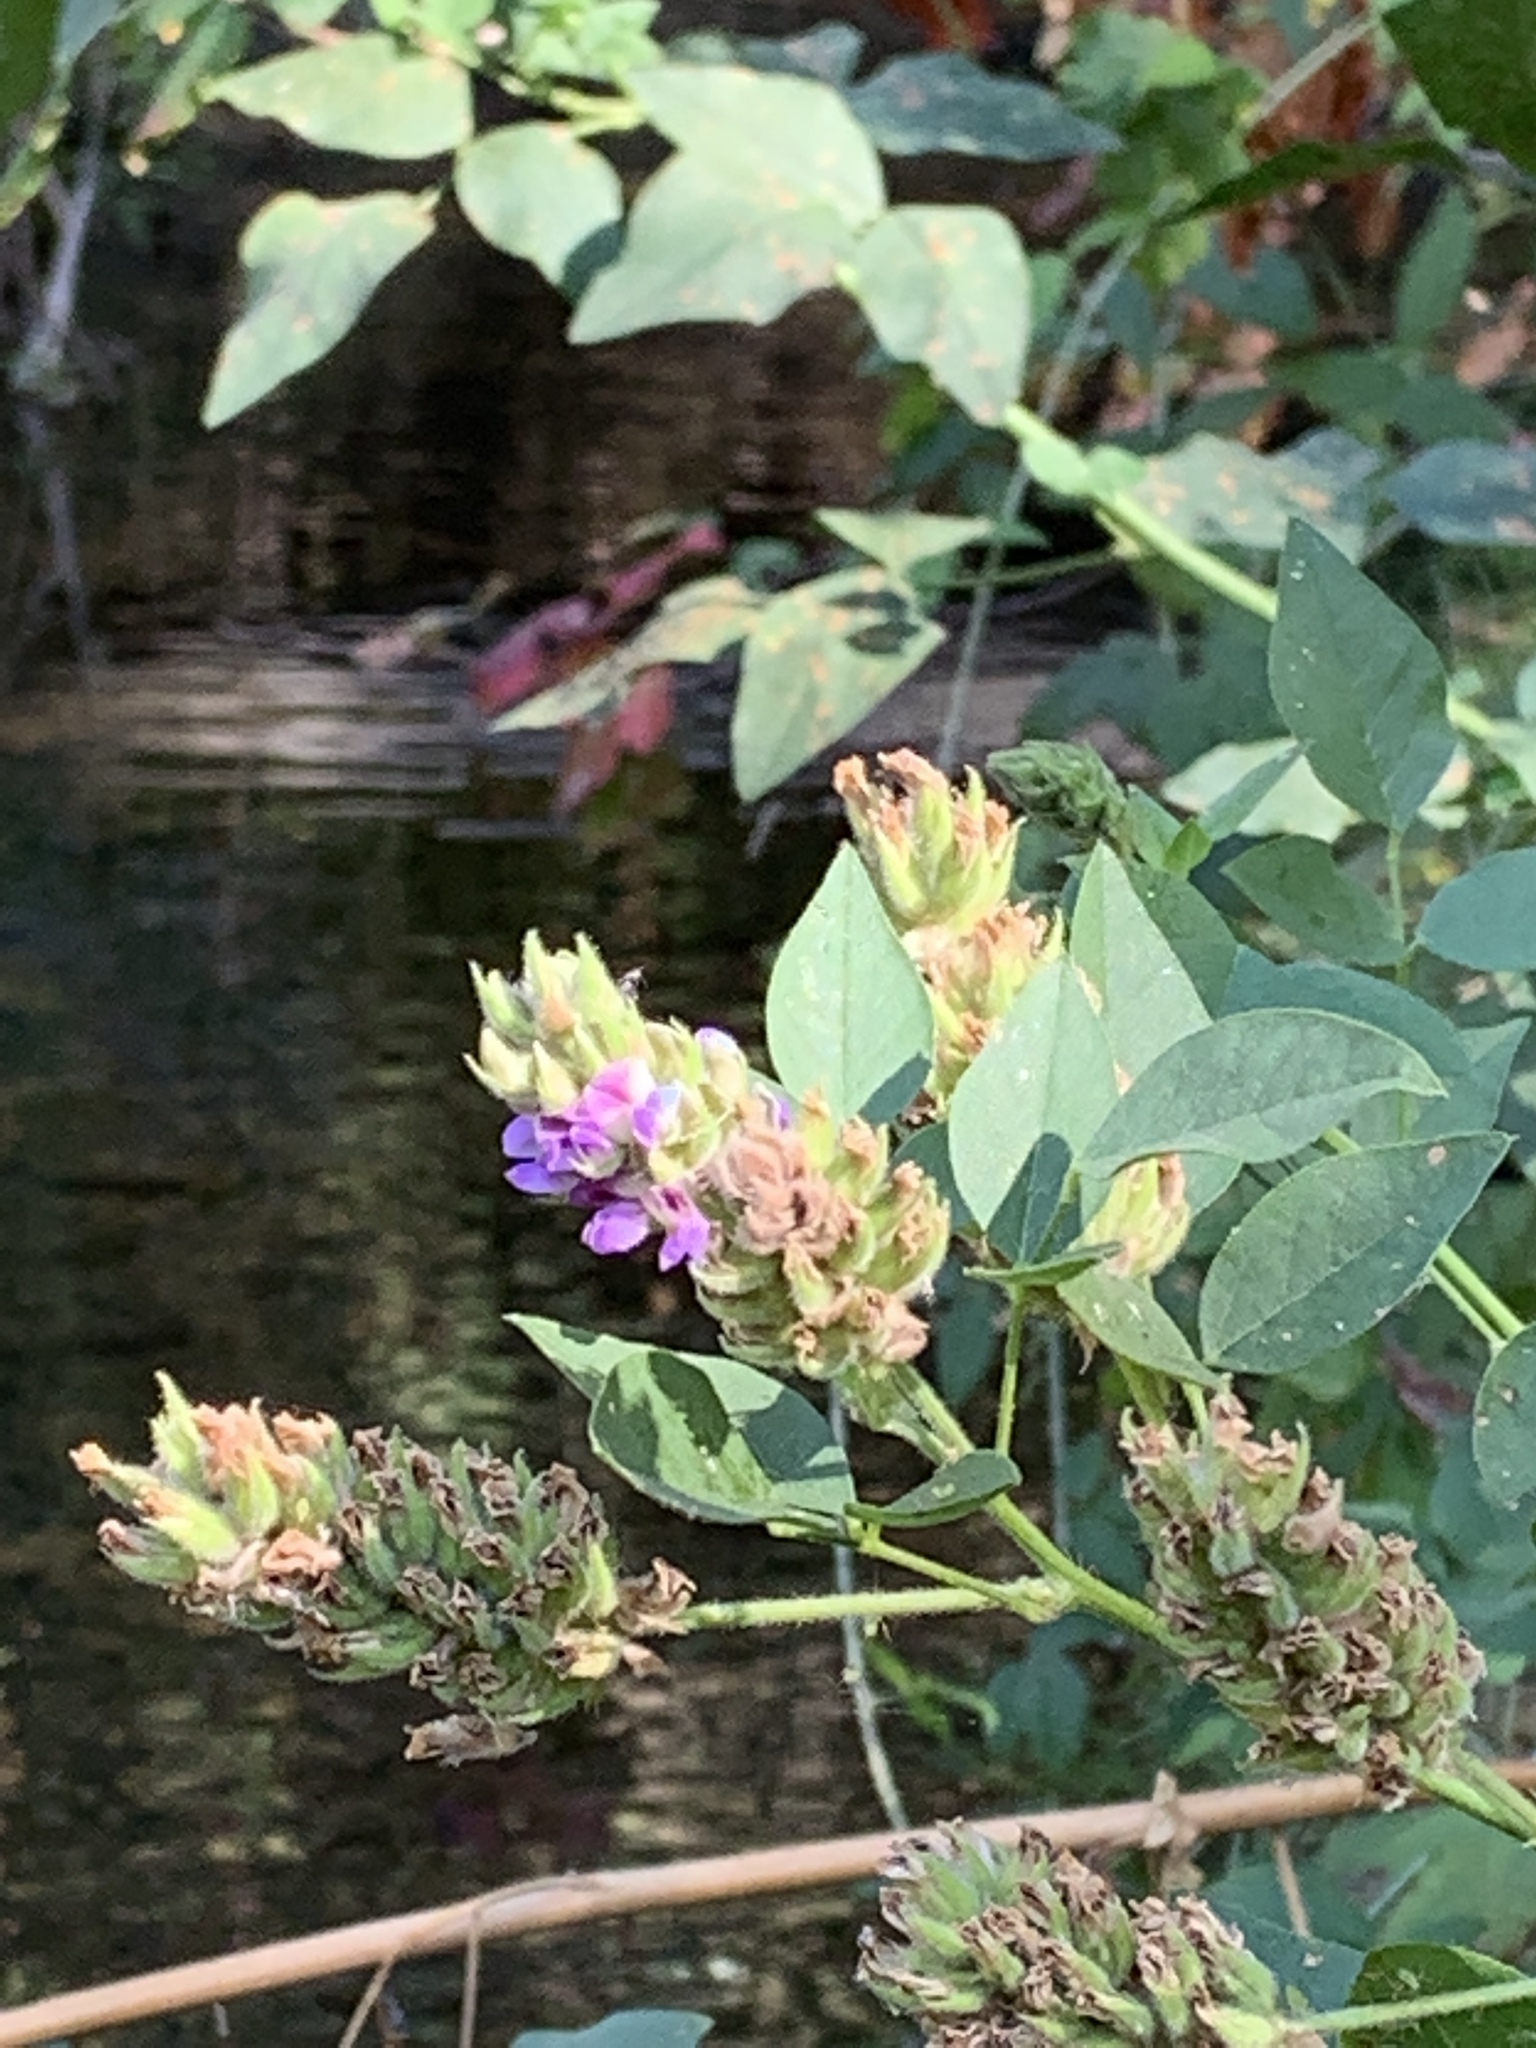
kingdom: Plantae
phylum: Tracheophyta
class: Magnoliopsida
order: Fabales
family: Fabaceae
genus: Hoita
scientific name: Hoita macrostachya
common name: Leatherroot
